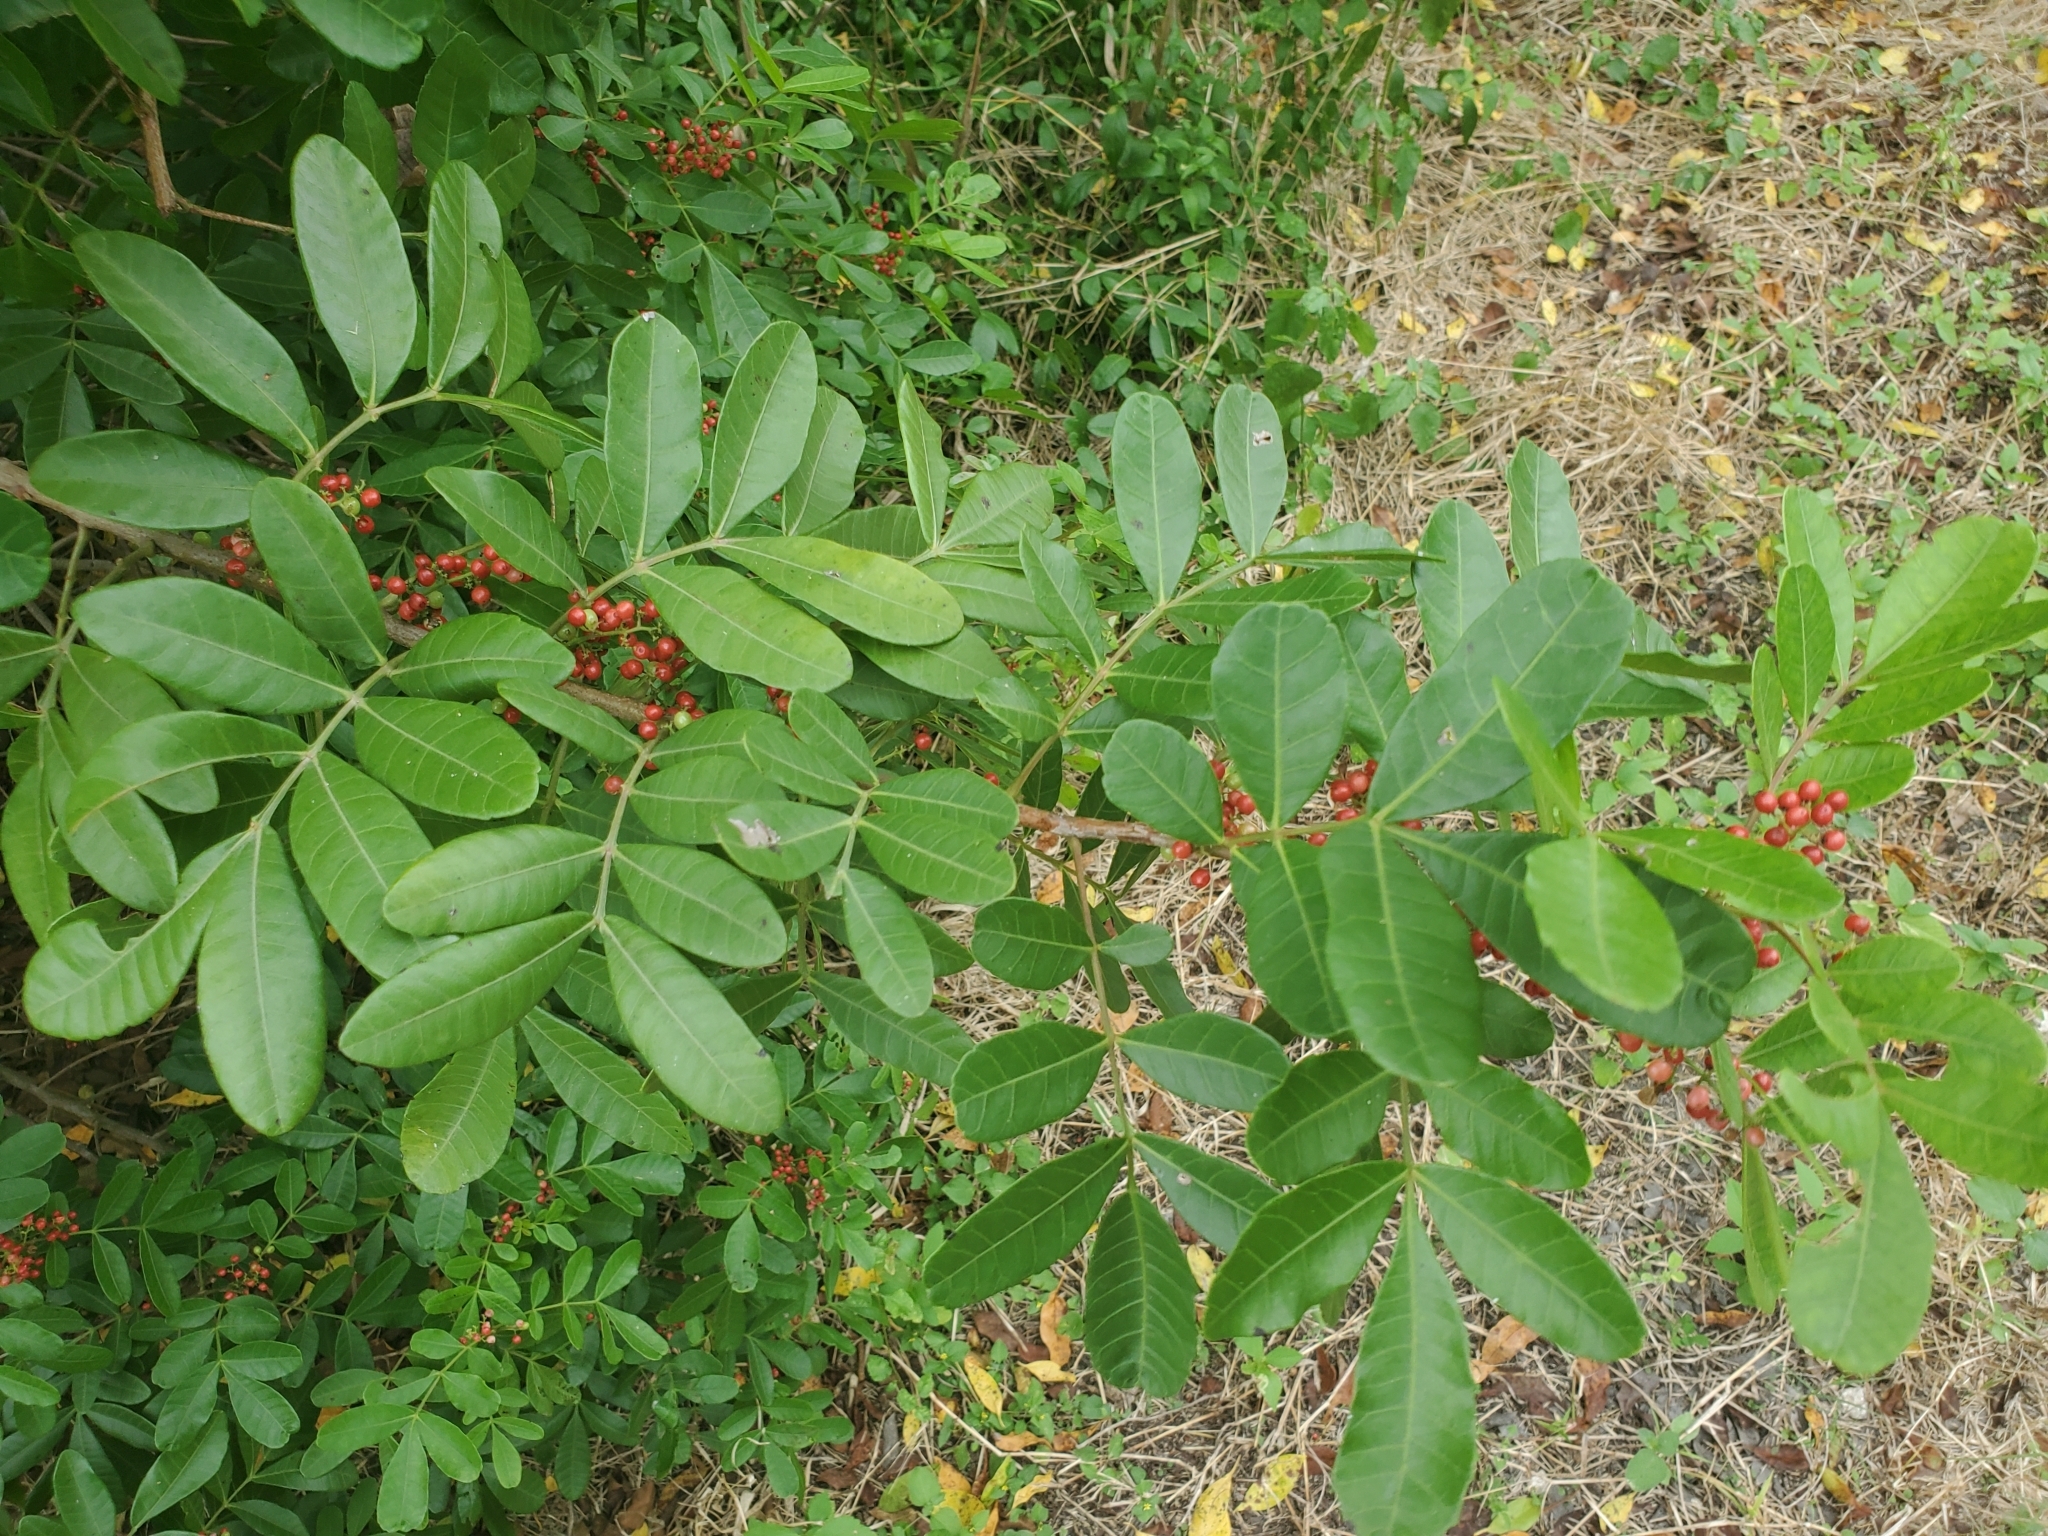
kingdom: Plantae
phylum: Tracheophyta
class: Magnoliopsida
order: Sapindales
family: Anacardiaceae
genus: Schinus
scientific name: Schinus terebinthifolia
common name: Brazilian peppertree
